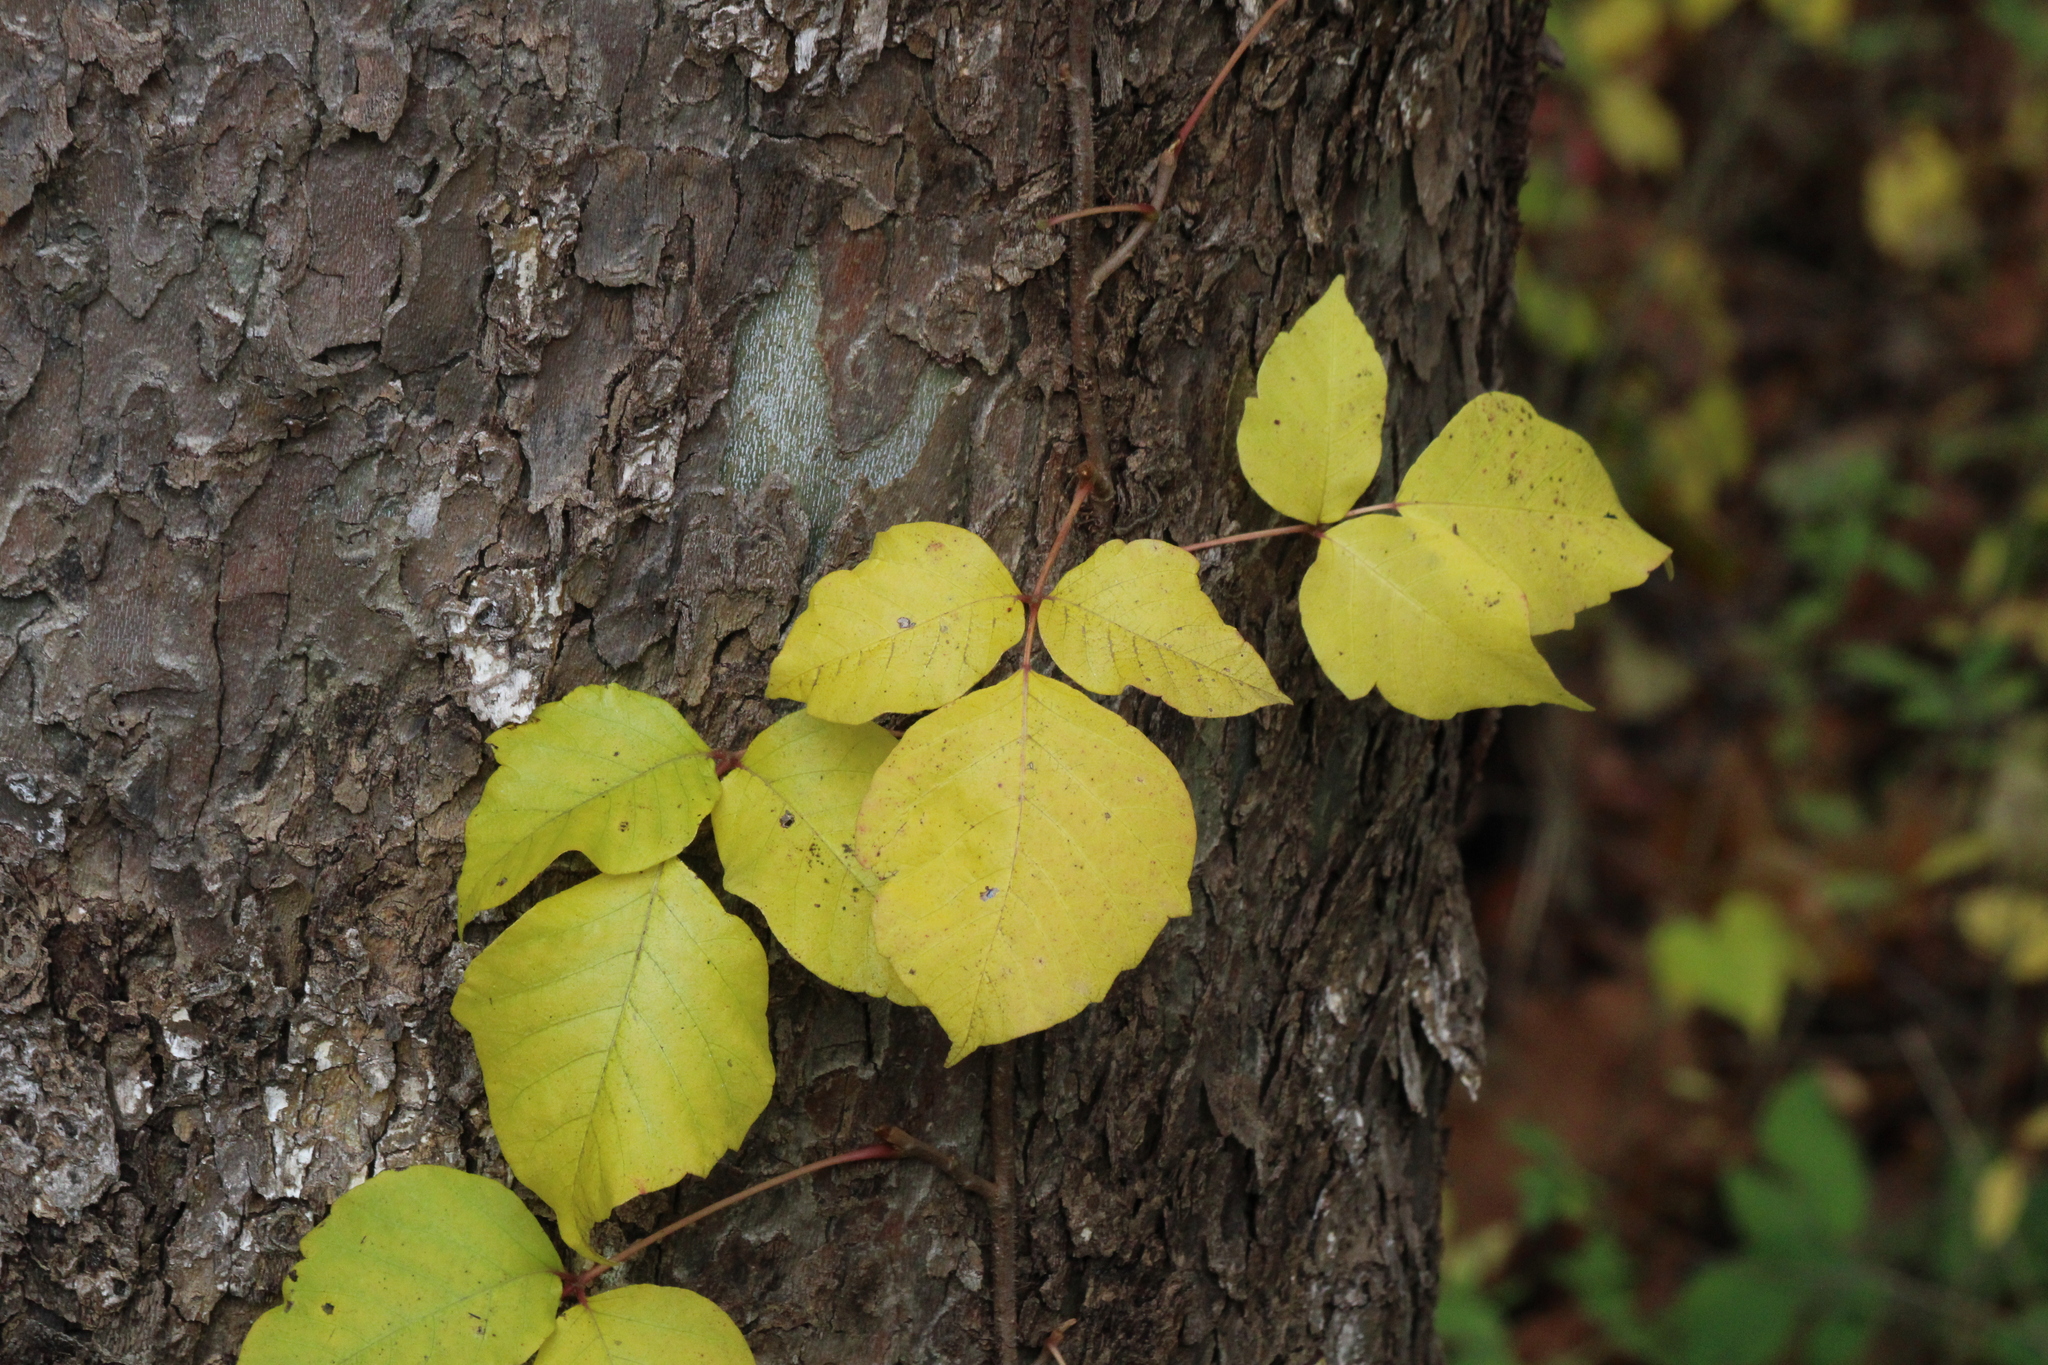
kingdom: Plantae
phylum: Tracheophyta
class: Magnoliopsida
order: Sapindales
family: Anacardiaceae
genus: Toxicodendron
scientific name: Toxicodendron radicans
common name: Poison ivy
